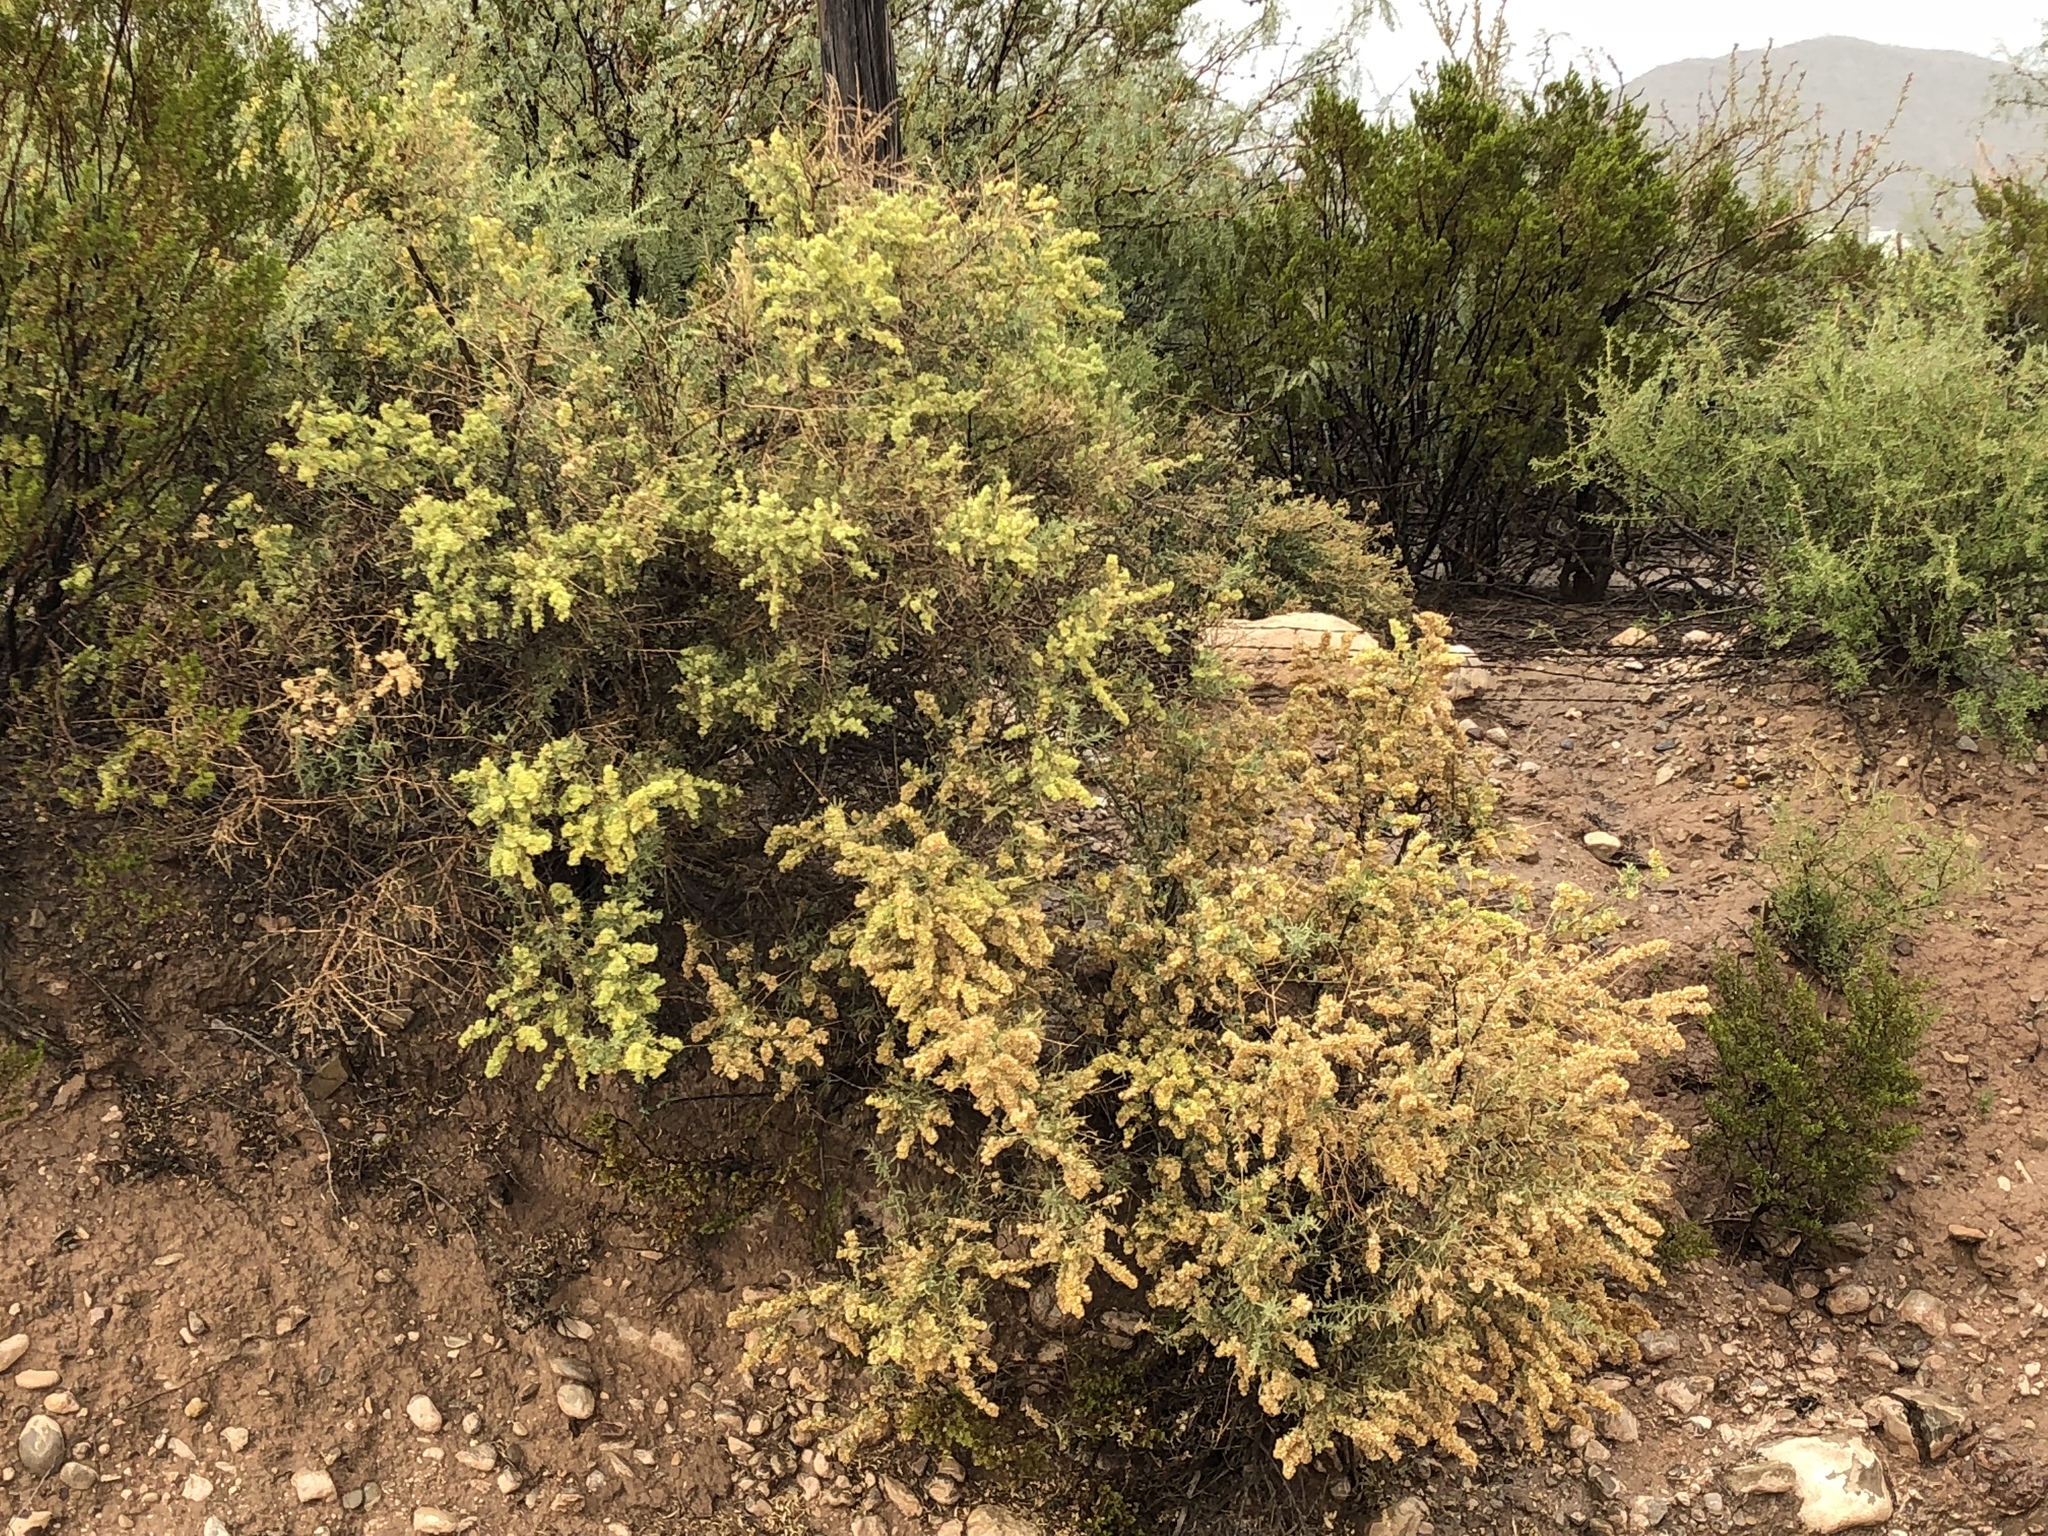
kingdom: Plantae
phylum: Tracheophyta
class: Magnoliopsida
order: Caryophyllales
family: Amaranthaceae
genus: Atriplex
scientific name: Atriplex canescens
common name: Four-wing saltbush
